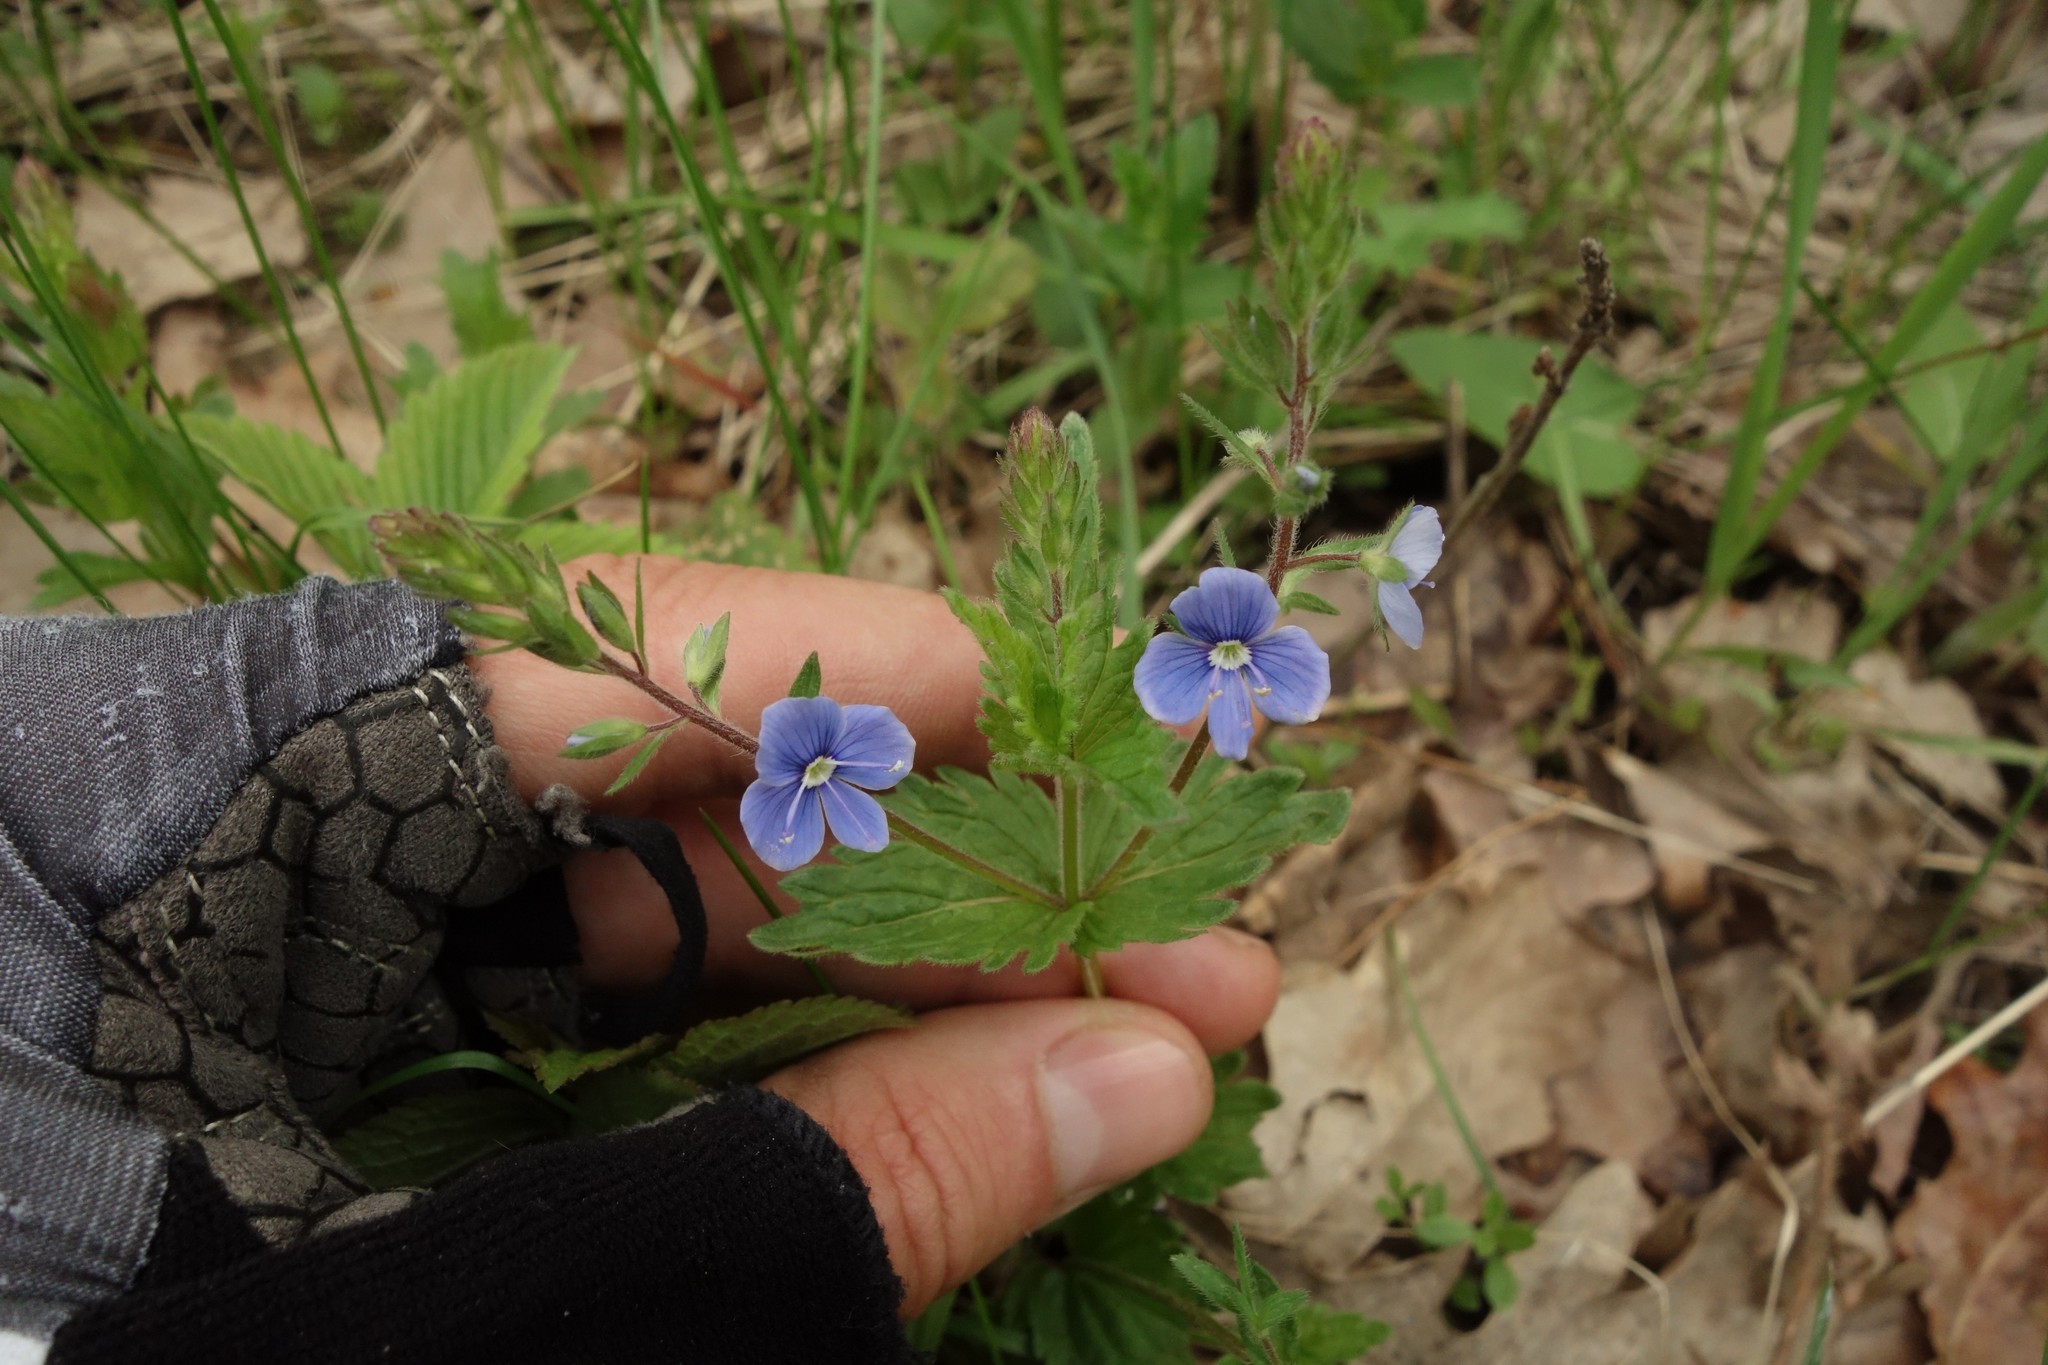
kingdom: Plantae
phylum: Tracheophyta
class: Magnoliopsida
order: Lamiales
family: Plantaginaceae
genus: Veronica
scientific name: Veronica chamaedrys
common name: Germander speedwell
